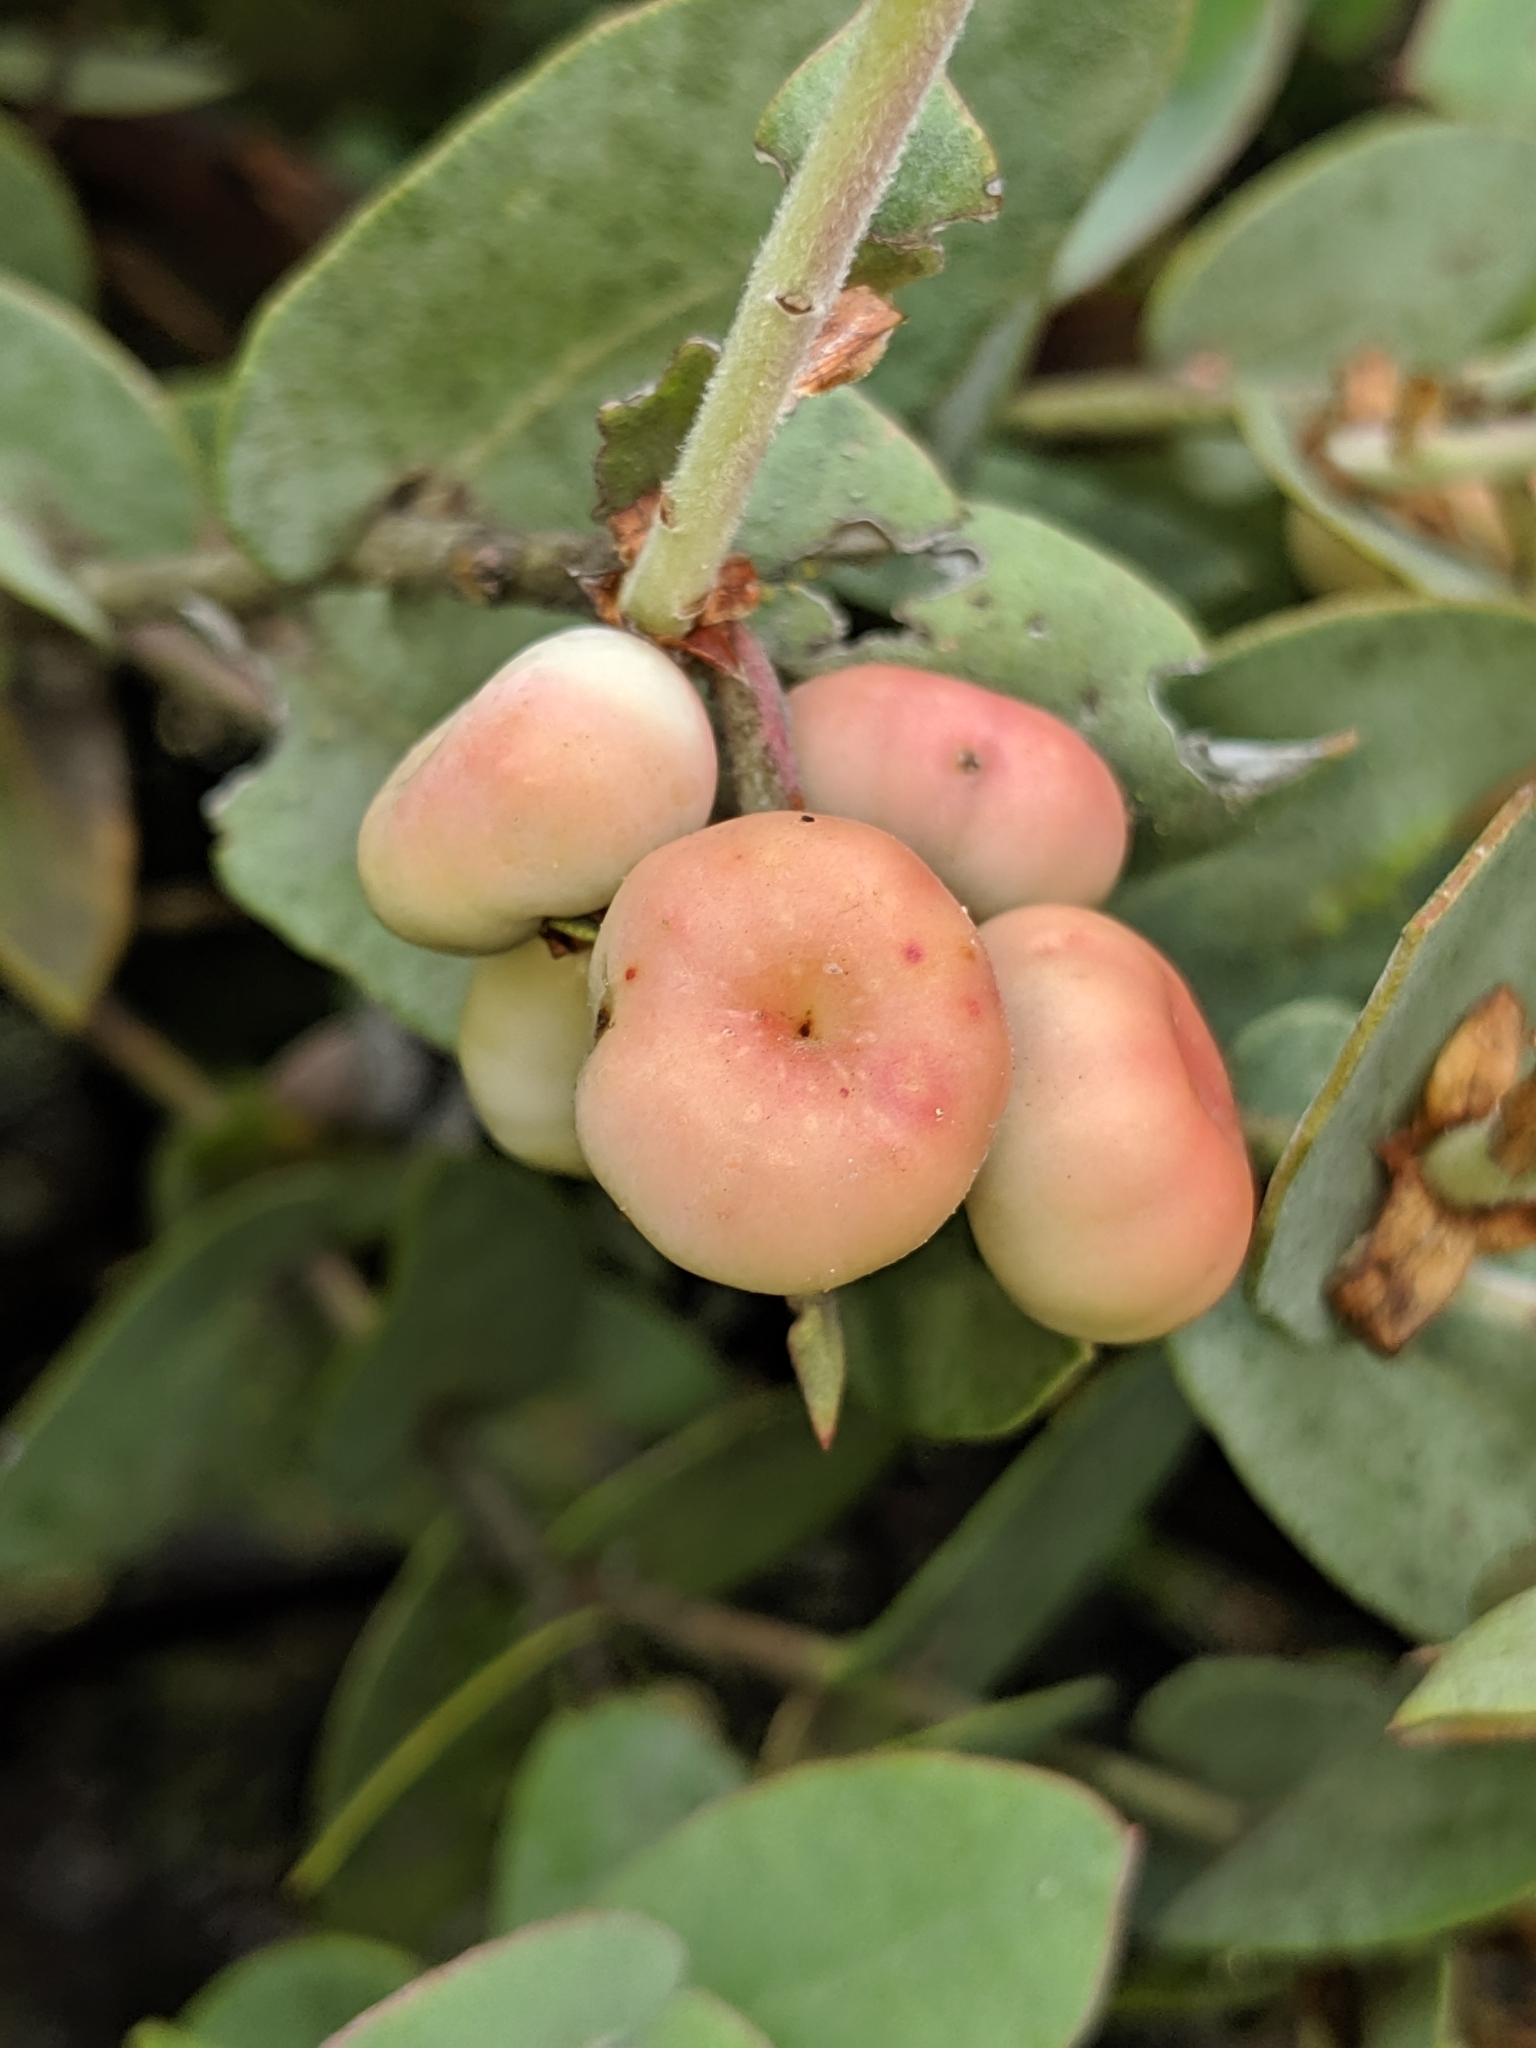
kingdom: Plantae
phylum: Tracheophyta
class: Magnoliopsida
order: Ericales
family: Ericaceae
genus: Arctostaphylos
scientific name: Arctostaphylos luciana
